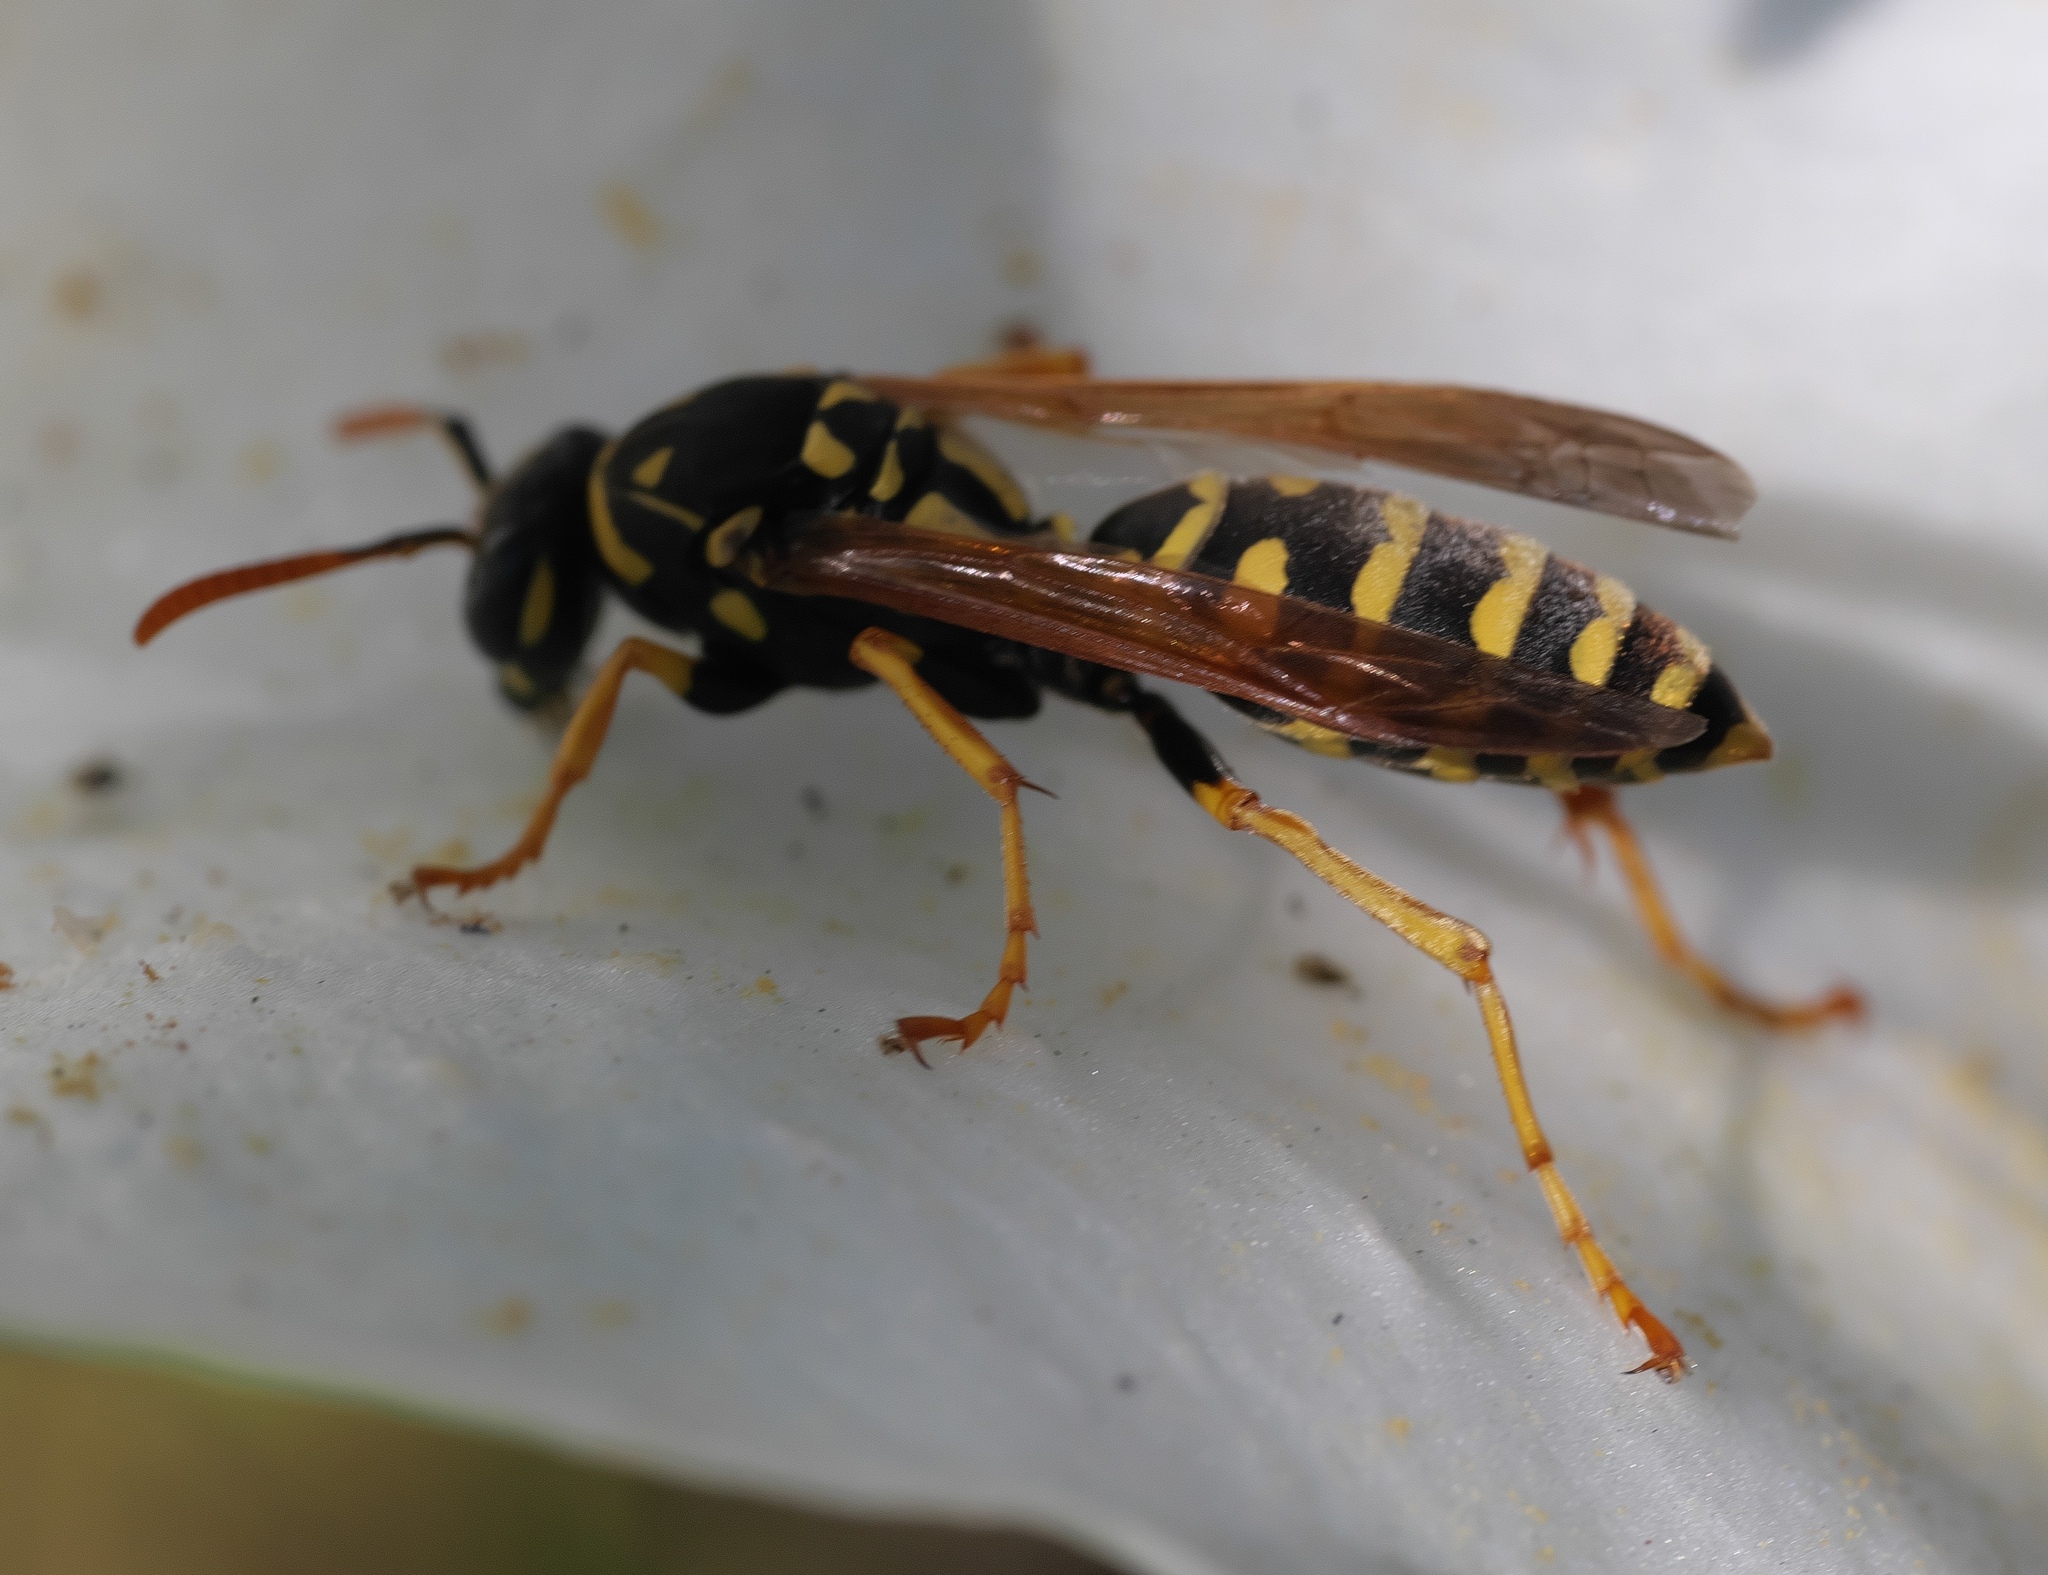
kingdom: Animalia
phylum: Arthropoda
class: Insecta
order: Hymenoptera
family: Eumenidae
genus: Polistes
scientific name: Polistes dominula
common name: Paper wasp
